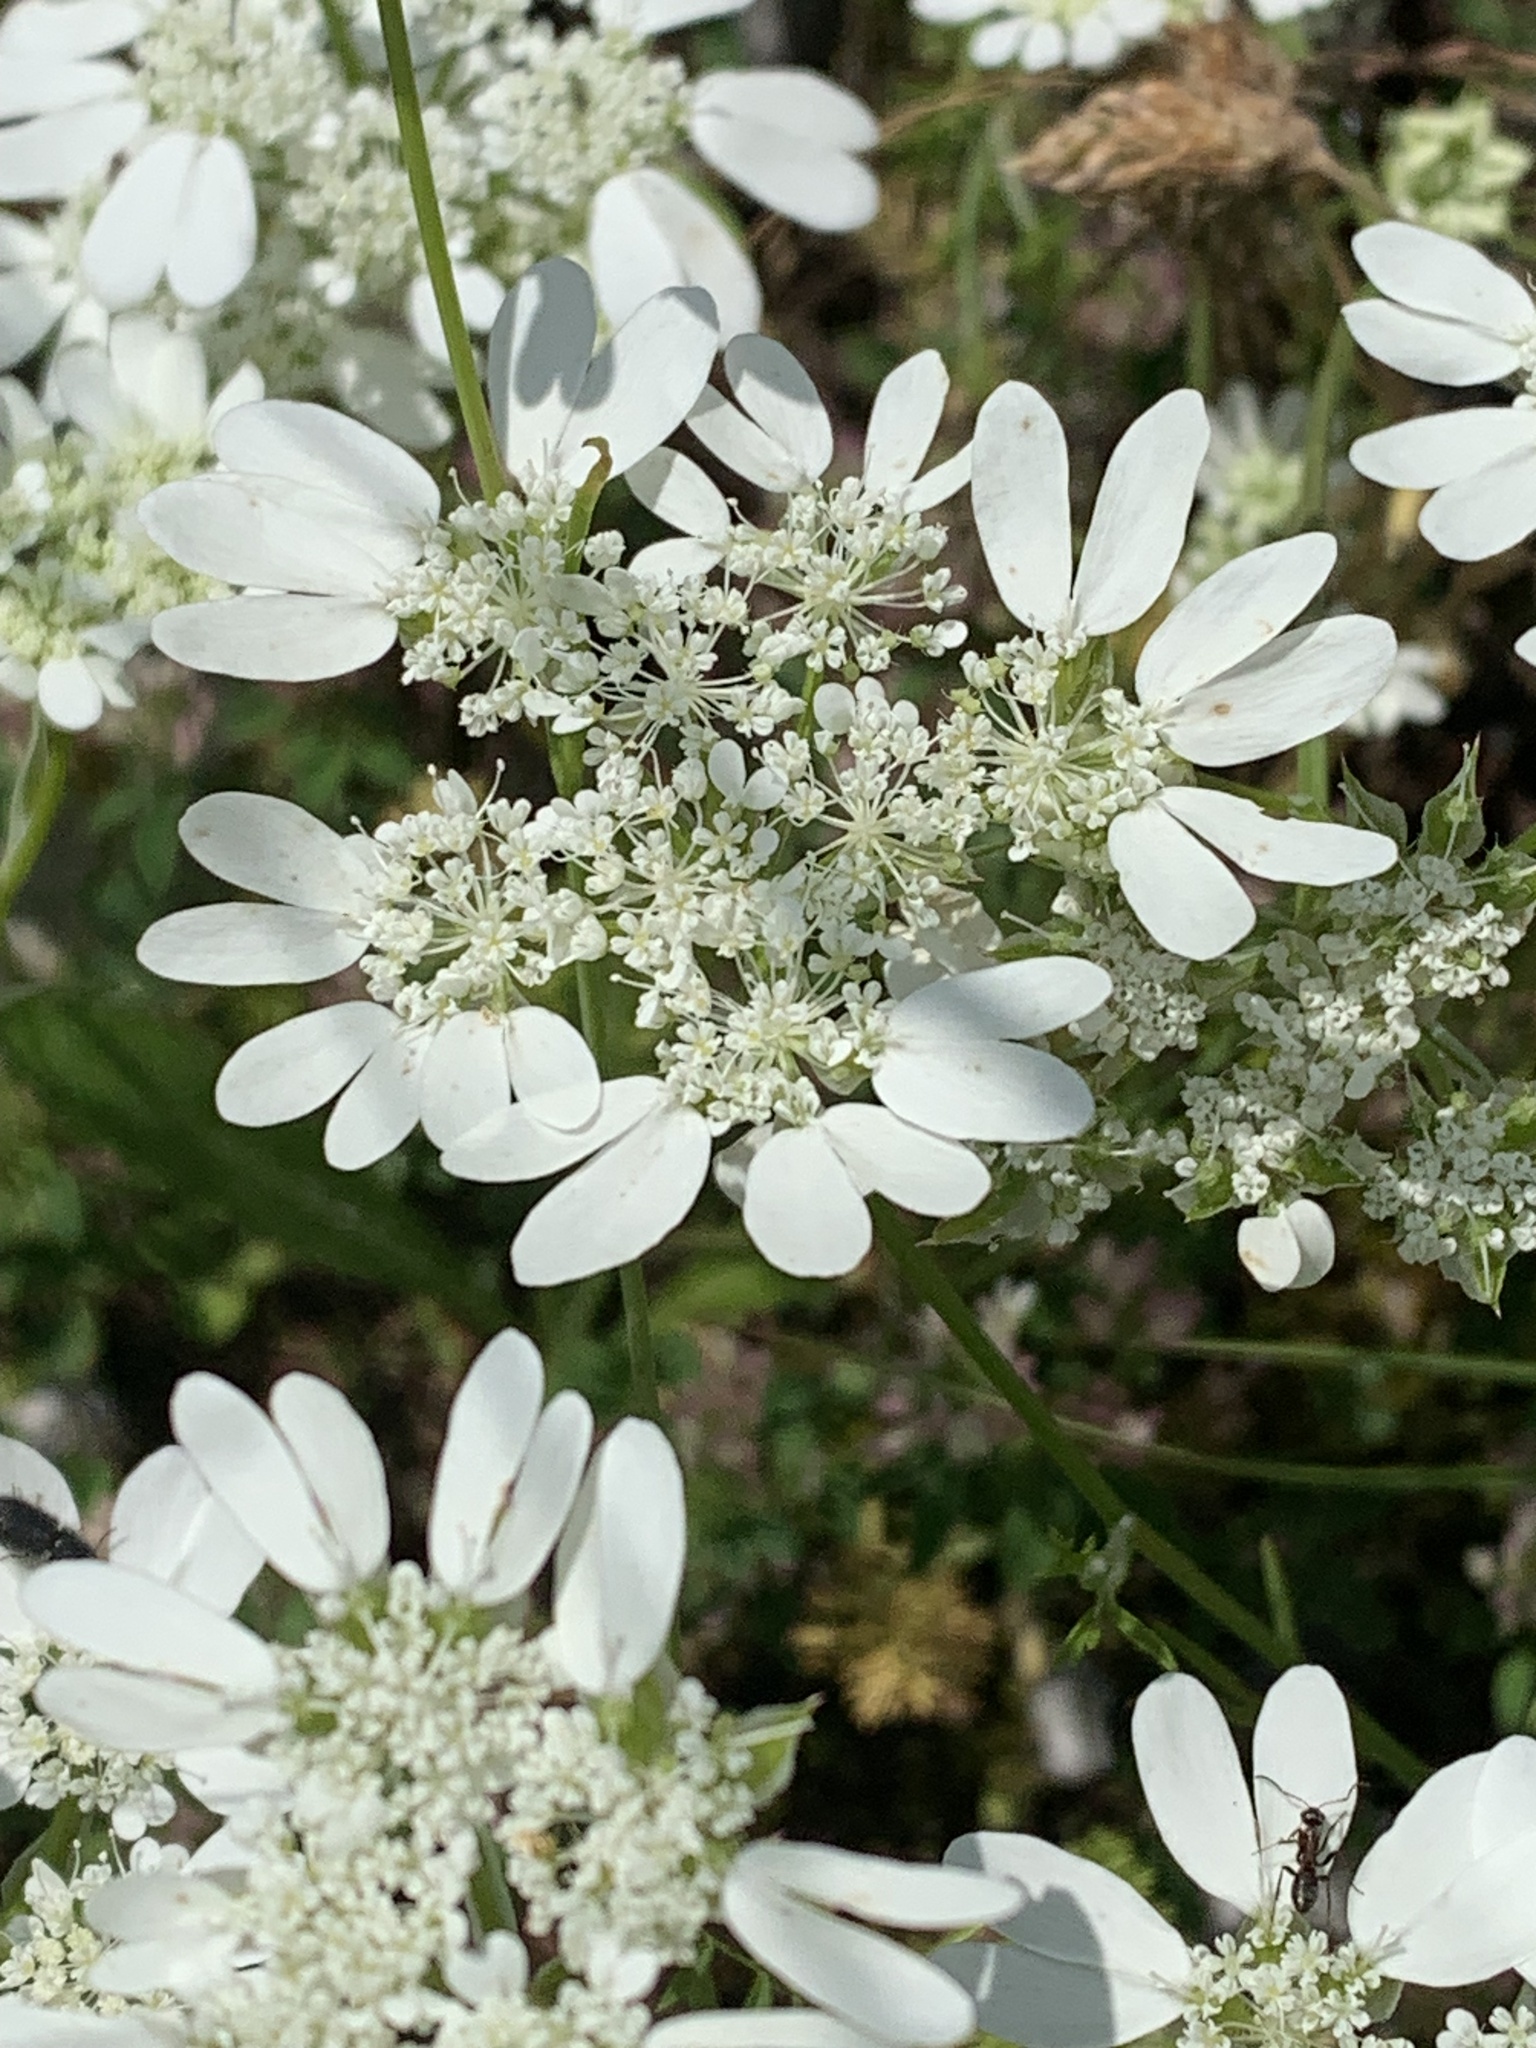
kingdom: Plantae
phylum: Tracheophyta
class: Magnoliopsida
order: Apiales
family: Apiaceae
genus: Orlaya
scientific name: Orlaya grandiflora
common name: White lace flower
